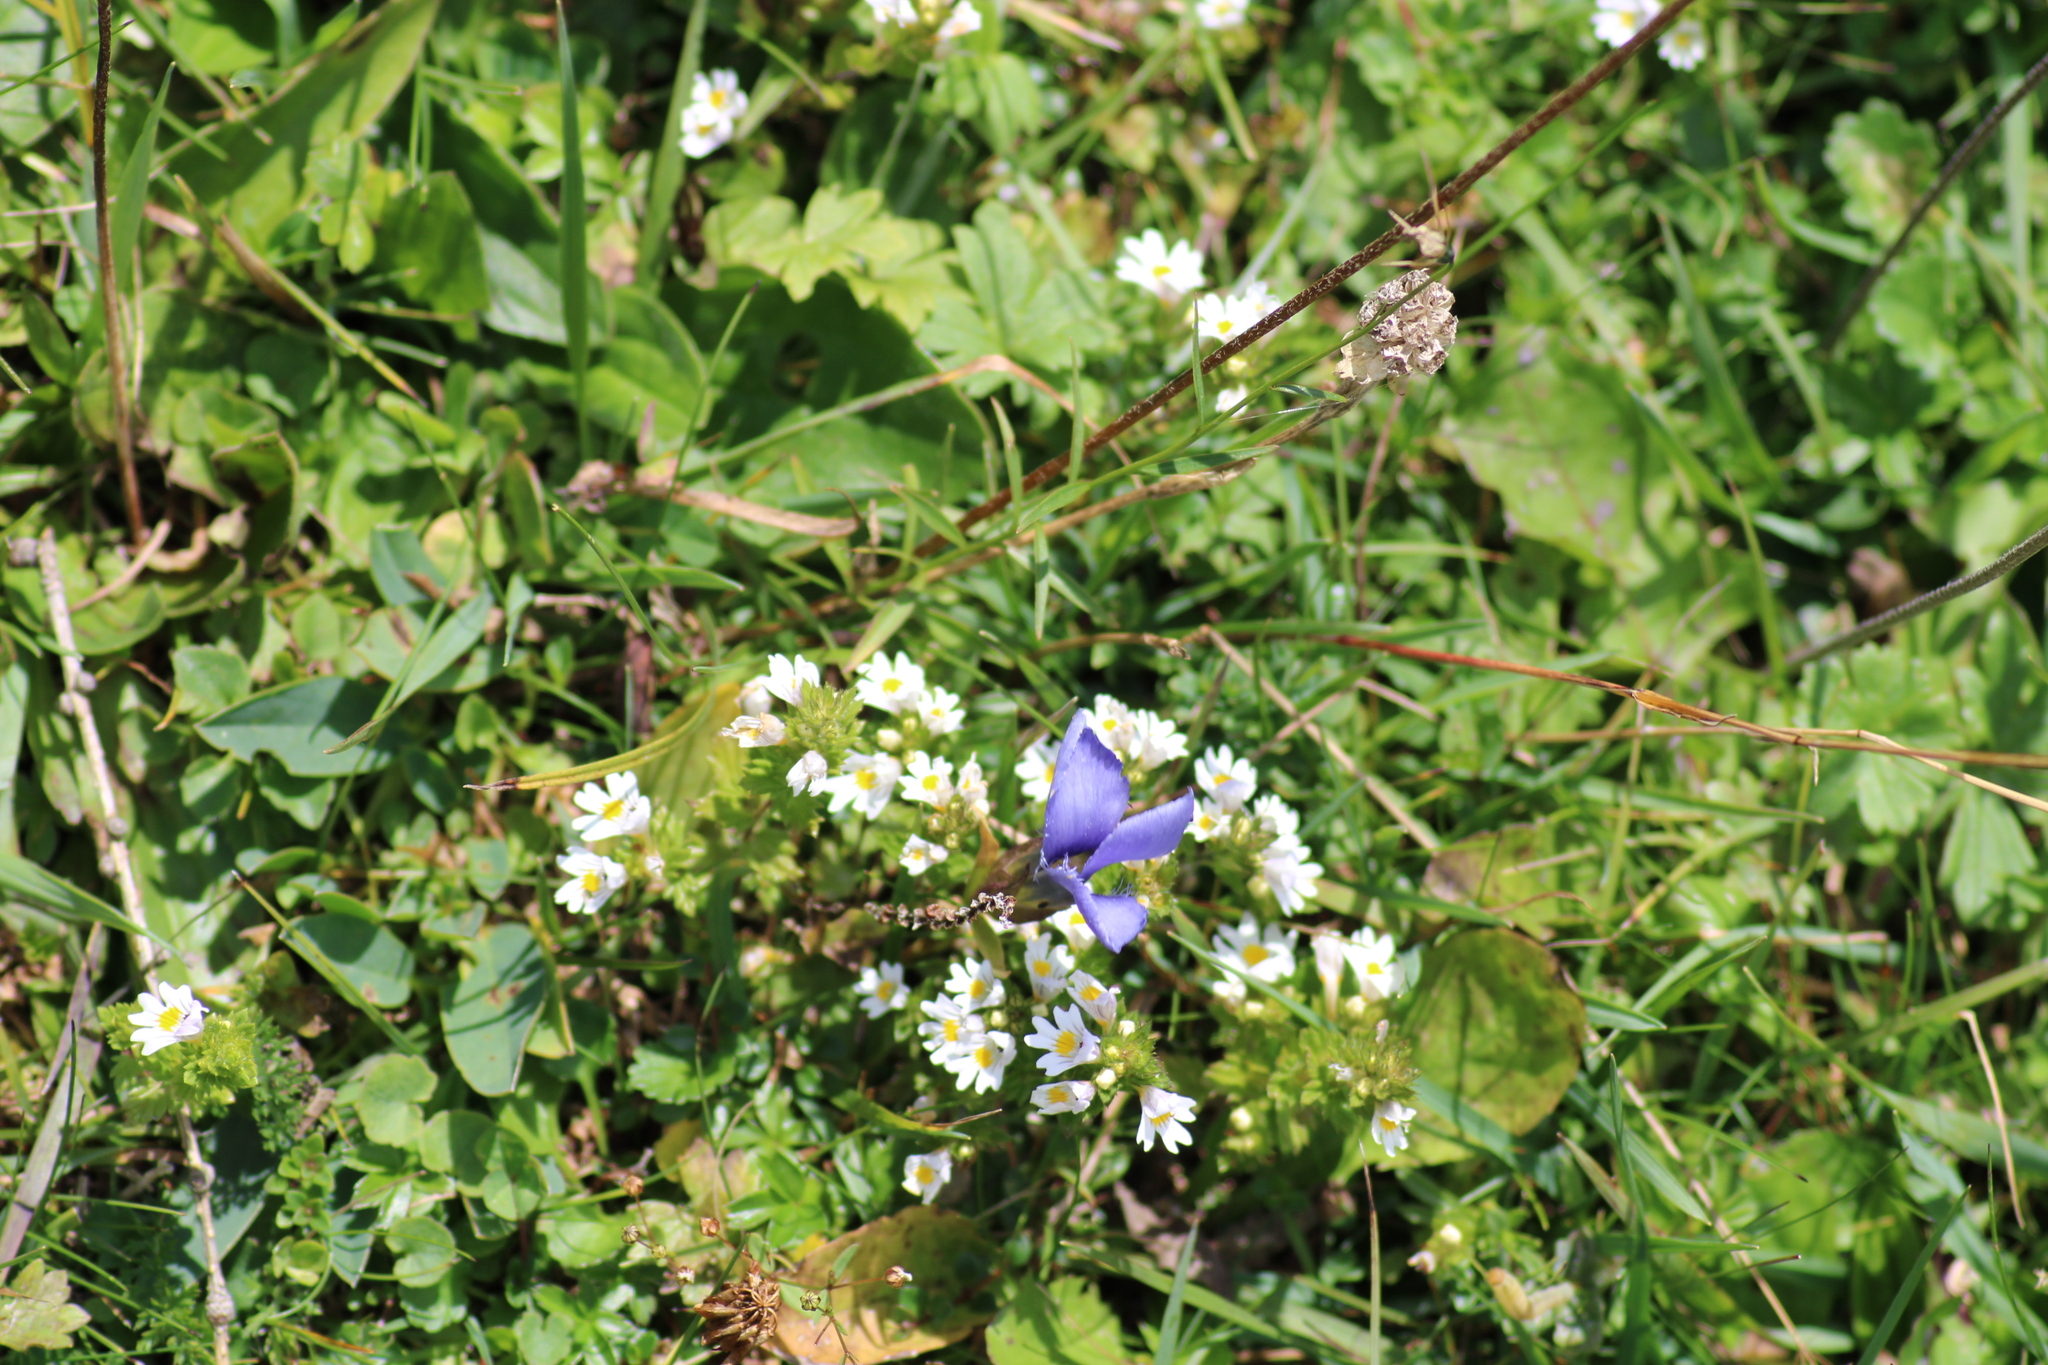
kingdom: Plantae
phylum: Tracheophyta
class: Magnoliopsida
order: Gentianales
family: Gentianaceae
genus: Gentianopsis
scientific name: Gentianopsis ciliata
